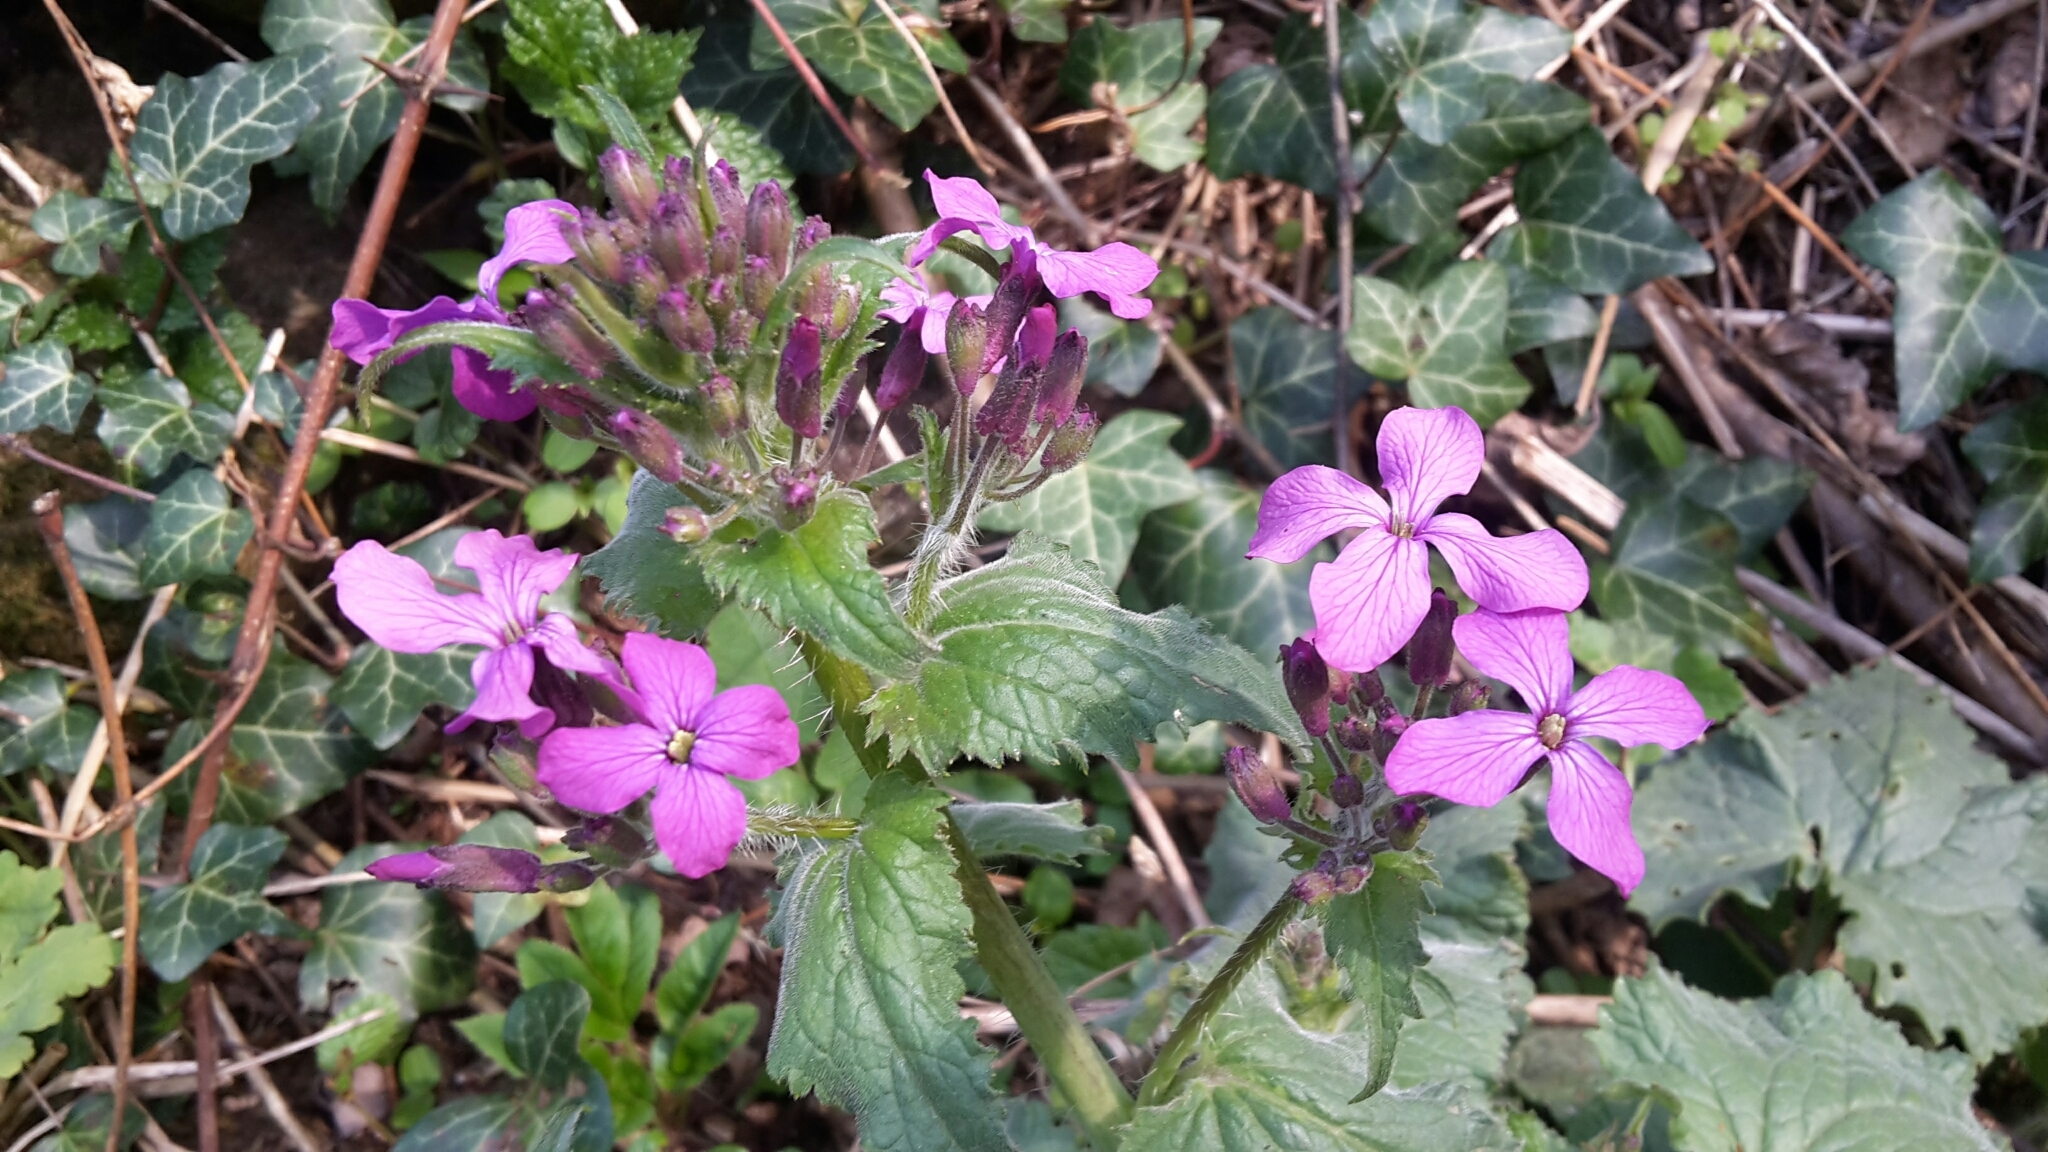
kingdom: Plantae
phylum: Tracheophyta
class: Magnoliopsida
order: Brassicales
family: Brassicaceae
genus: Lunaria
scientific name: Lunaria annua
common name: Honesty
